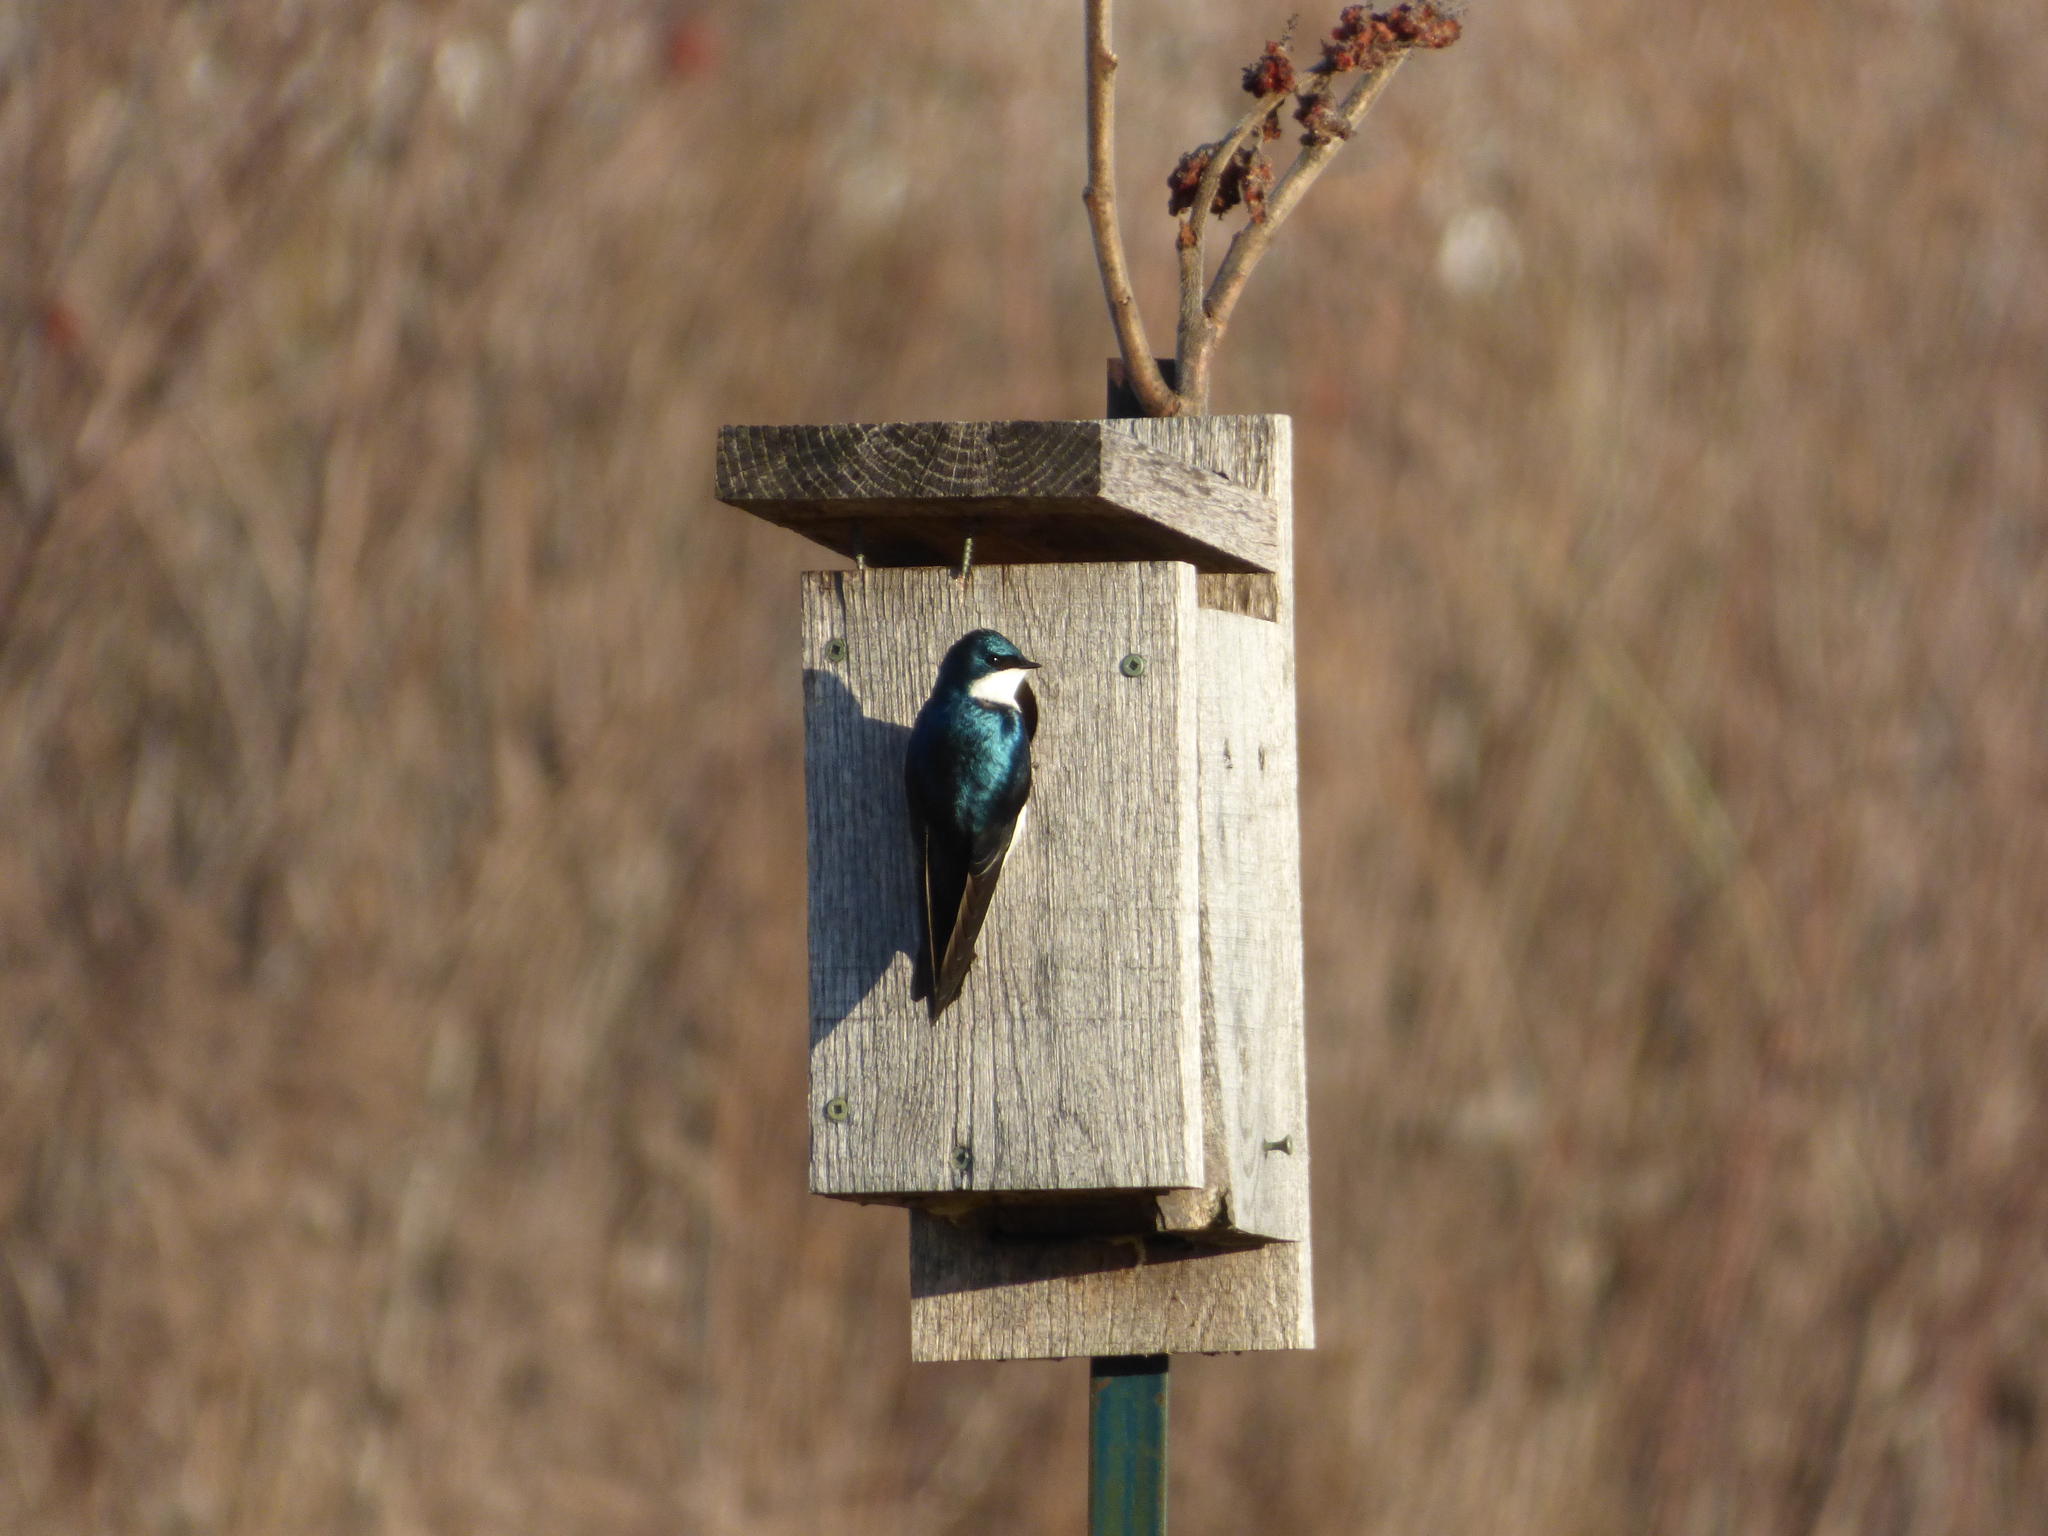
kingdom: Animalia
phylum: Chordata
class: Aves
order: Passeriformes
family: Hirundinidae
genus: Tachycineta
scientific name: Tachycineta bicolor
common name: Tree swallow
